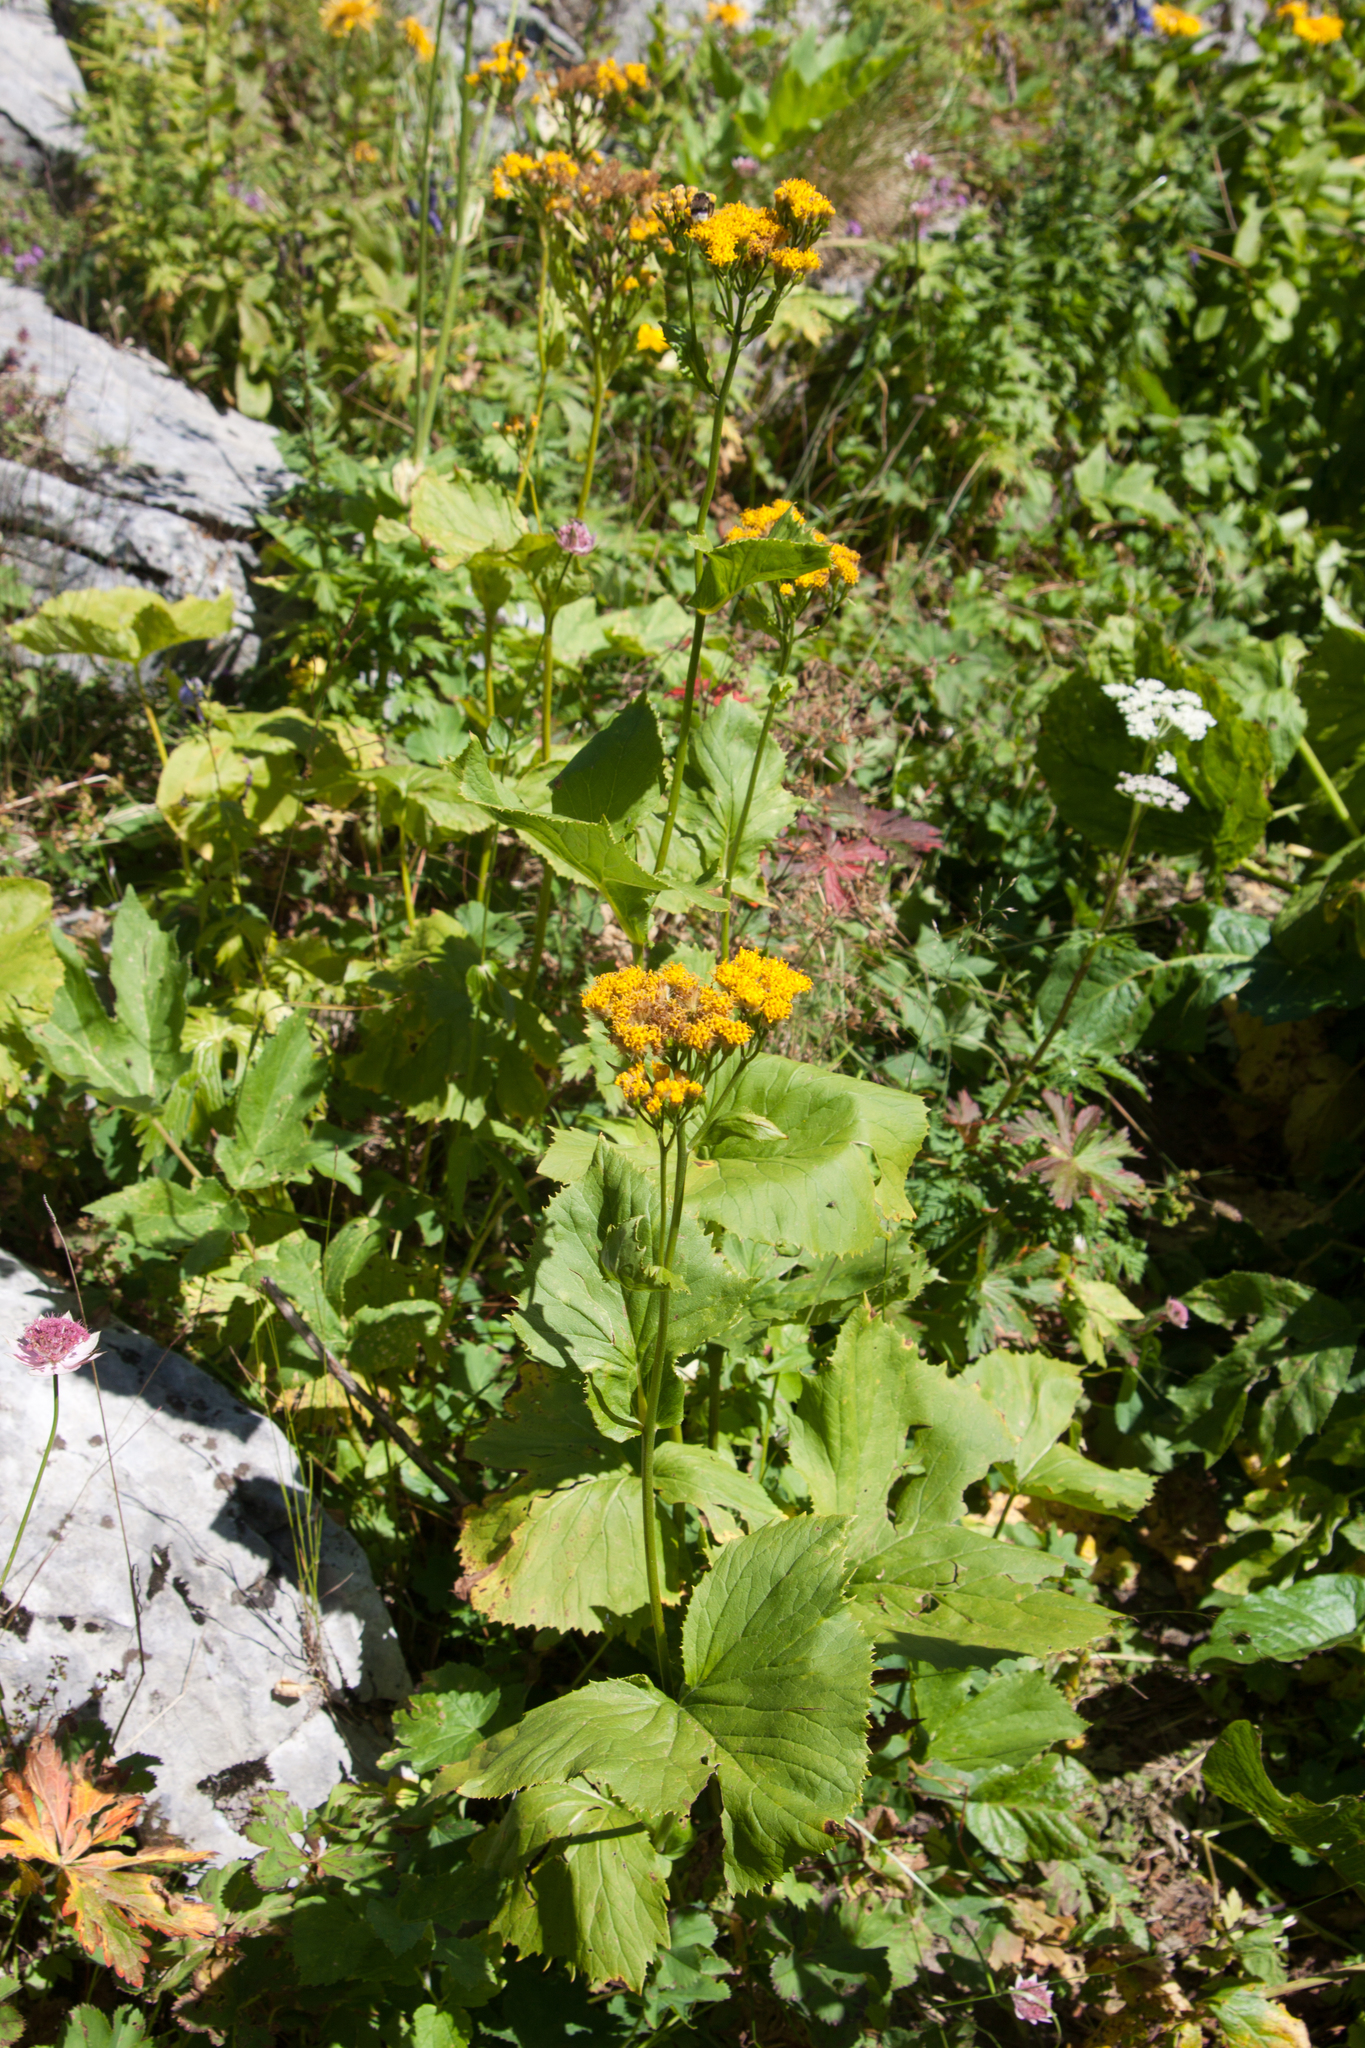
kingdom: Plantae
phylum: Tracheophyta
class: Magnoliopsida
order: Asterales
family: Asteraceae
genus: Caucasalia
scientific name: Caucasalia pontica
